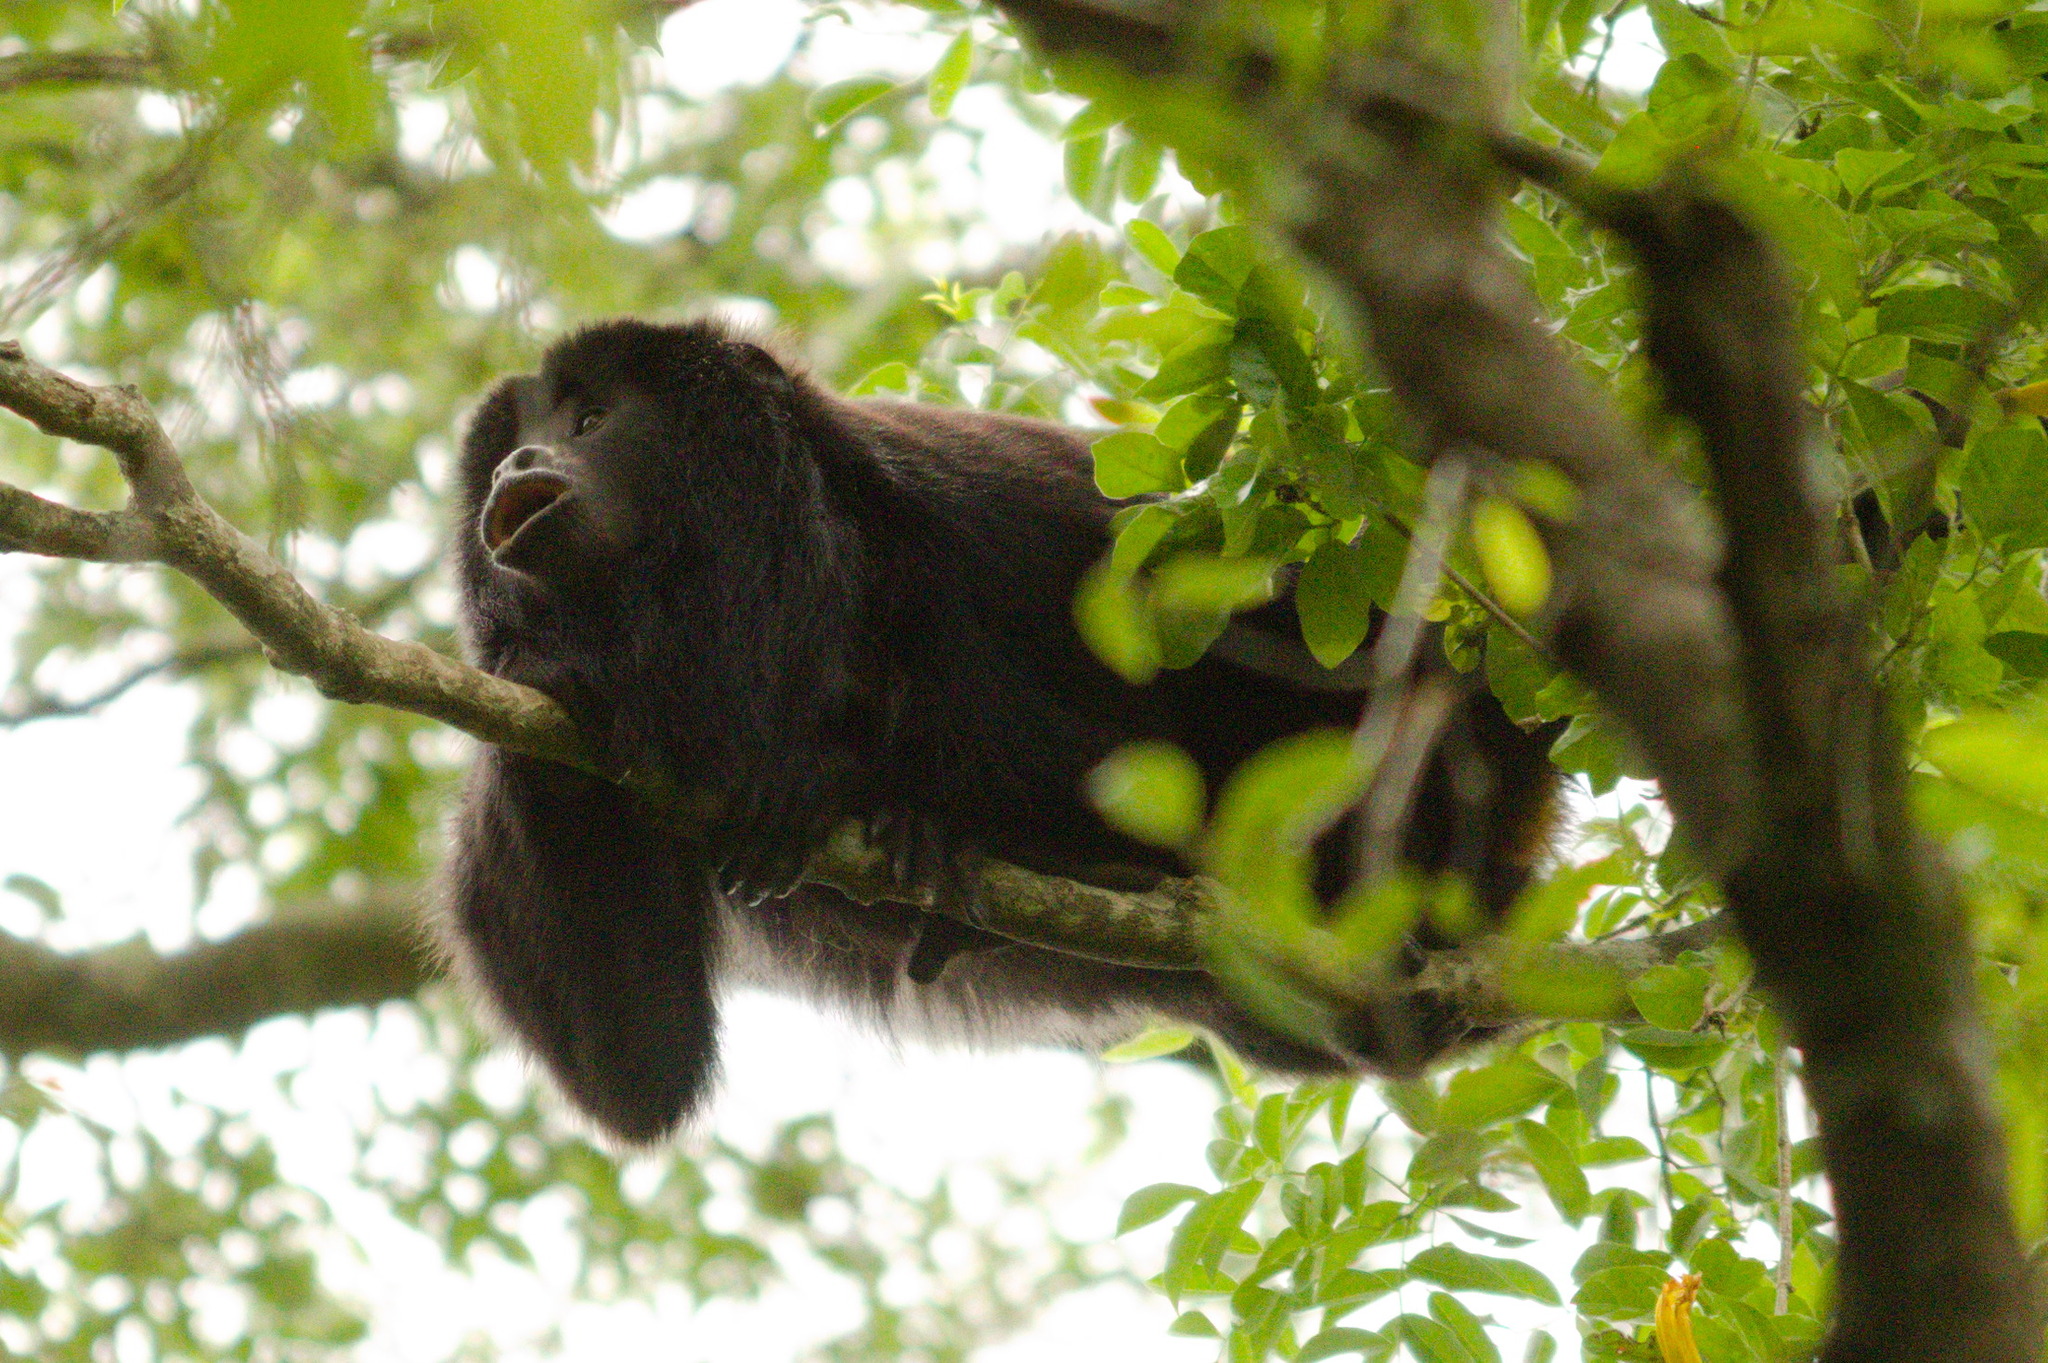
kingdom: Animalia
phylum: Chordata
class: Mammalia
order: Primates
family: Atelidae
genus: Alouatta
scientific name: Alouatta caraya
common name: Black howler
